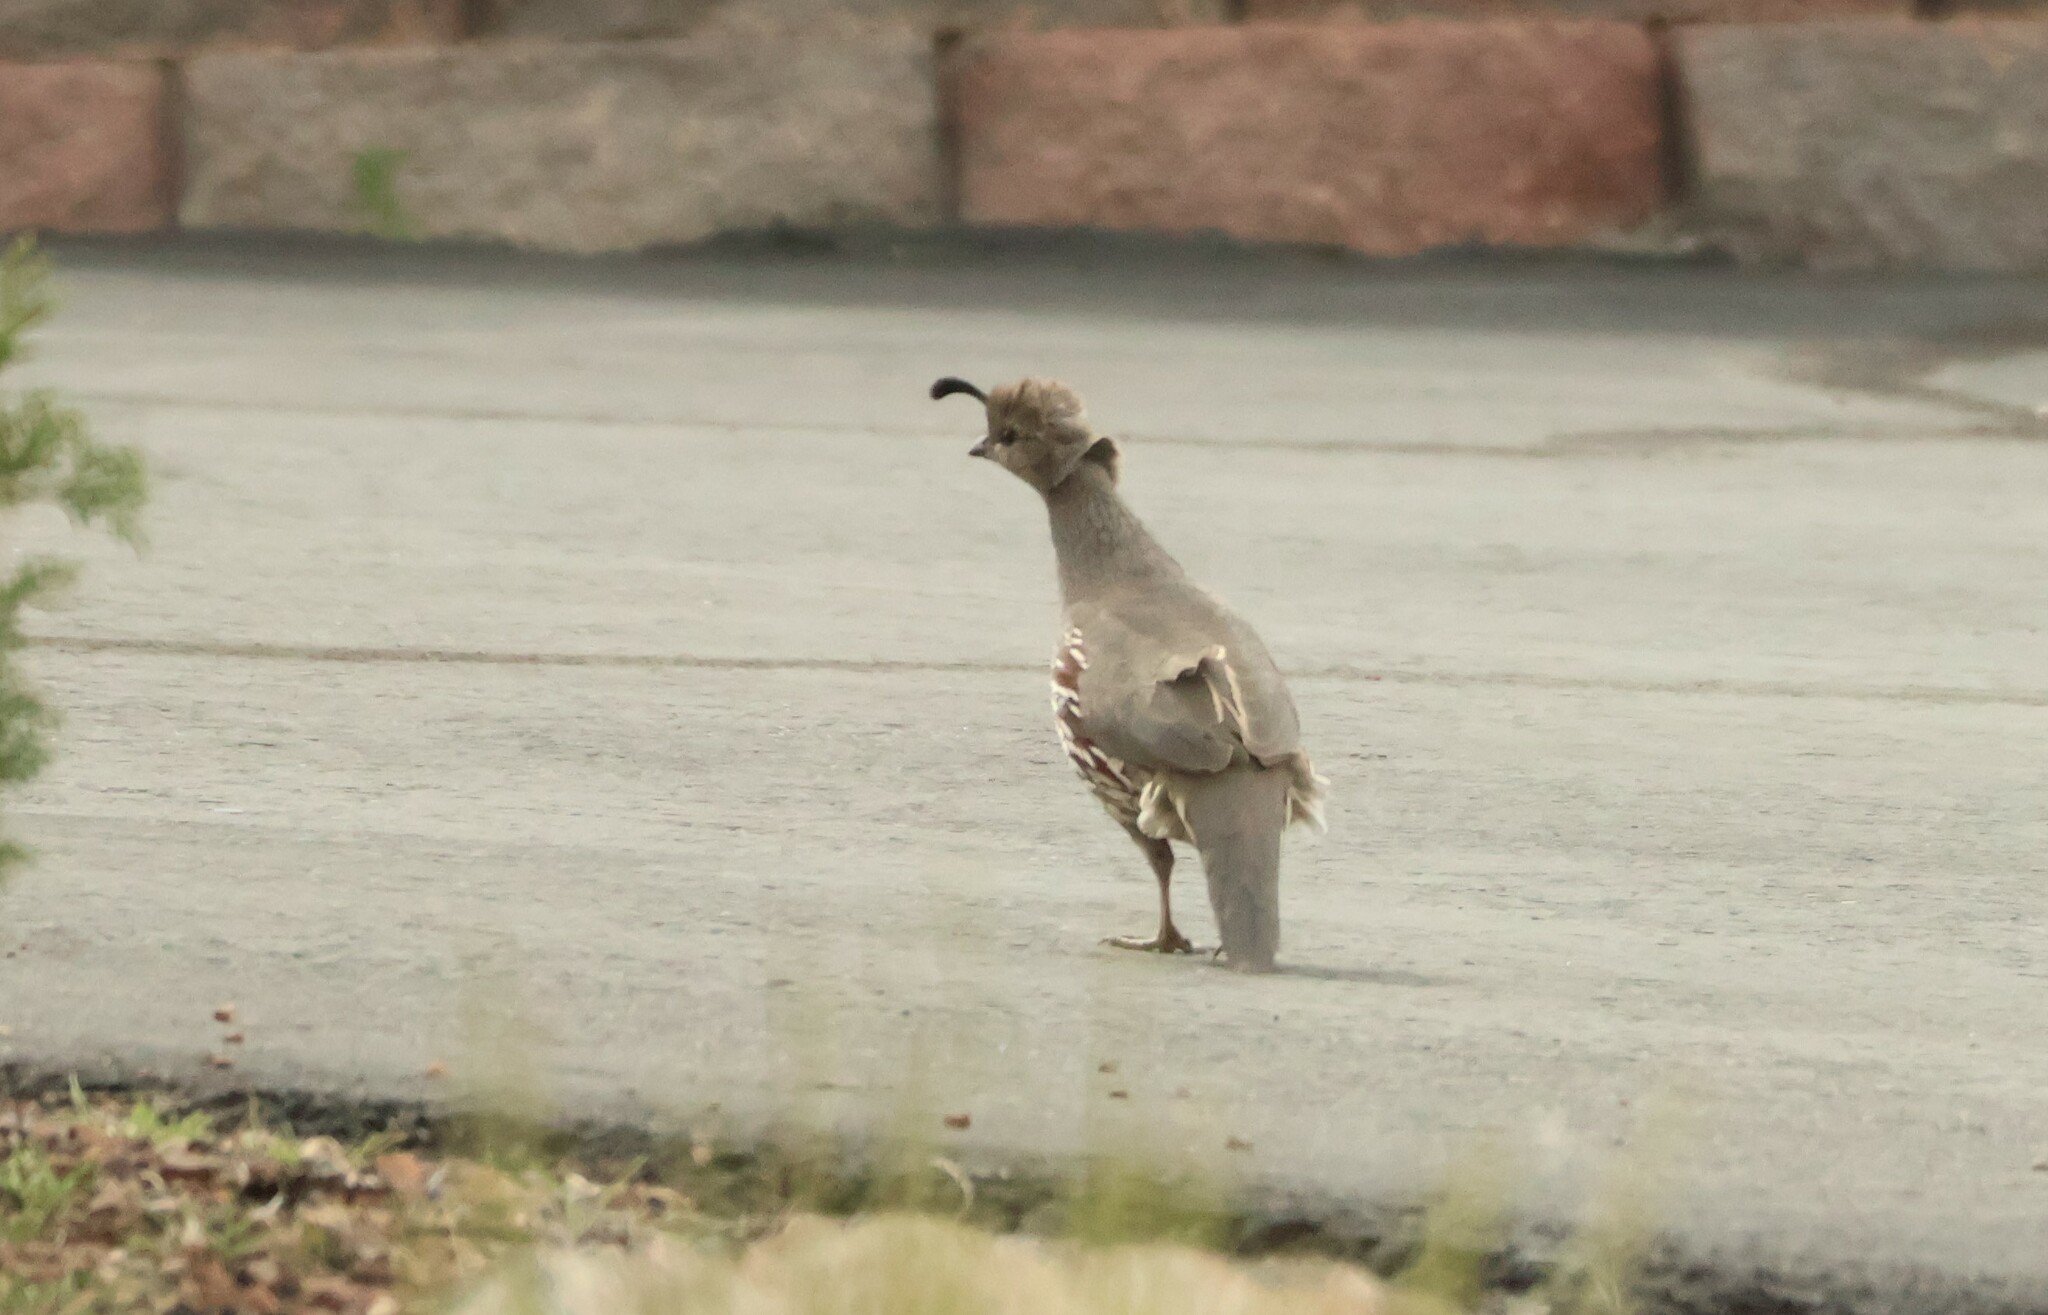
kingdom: Animalia
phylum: Chordata
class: Aves
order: Galliformes
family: Odontophoridae
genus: Callipepla
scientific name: Callipepla gambelii
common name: Gambel's quail
